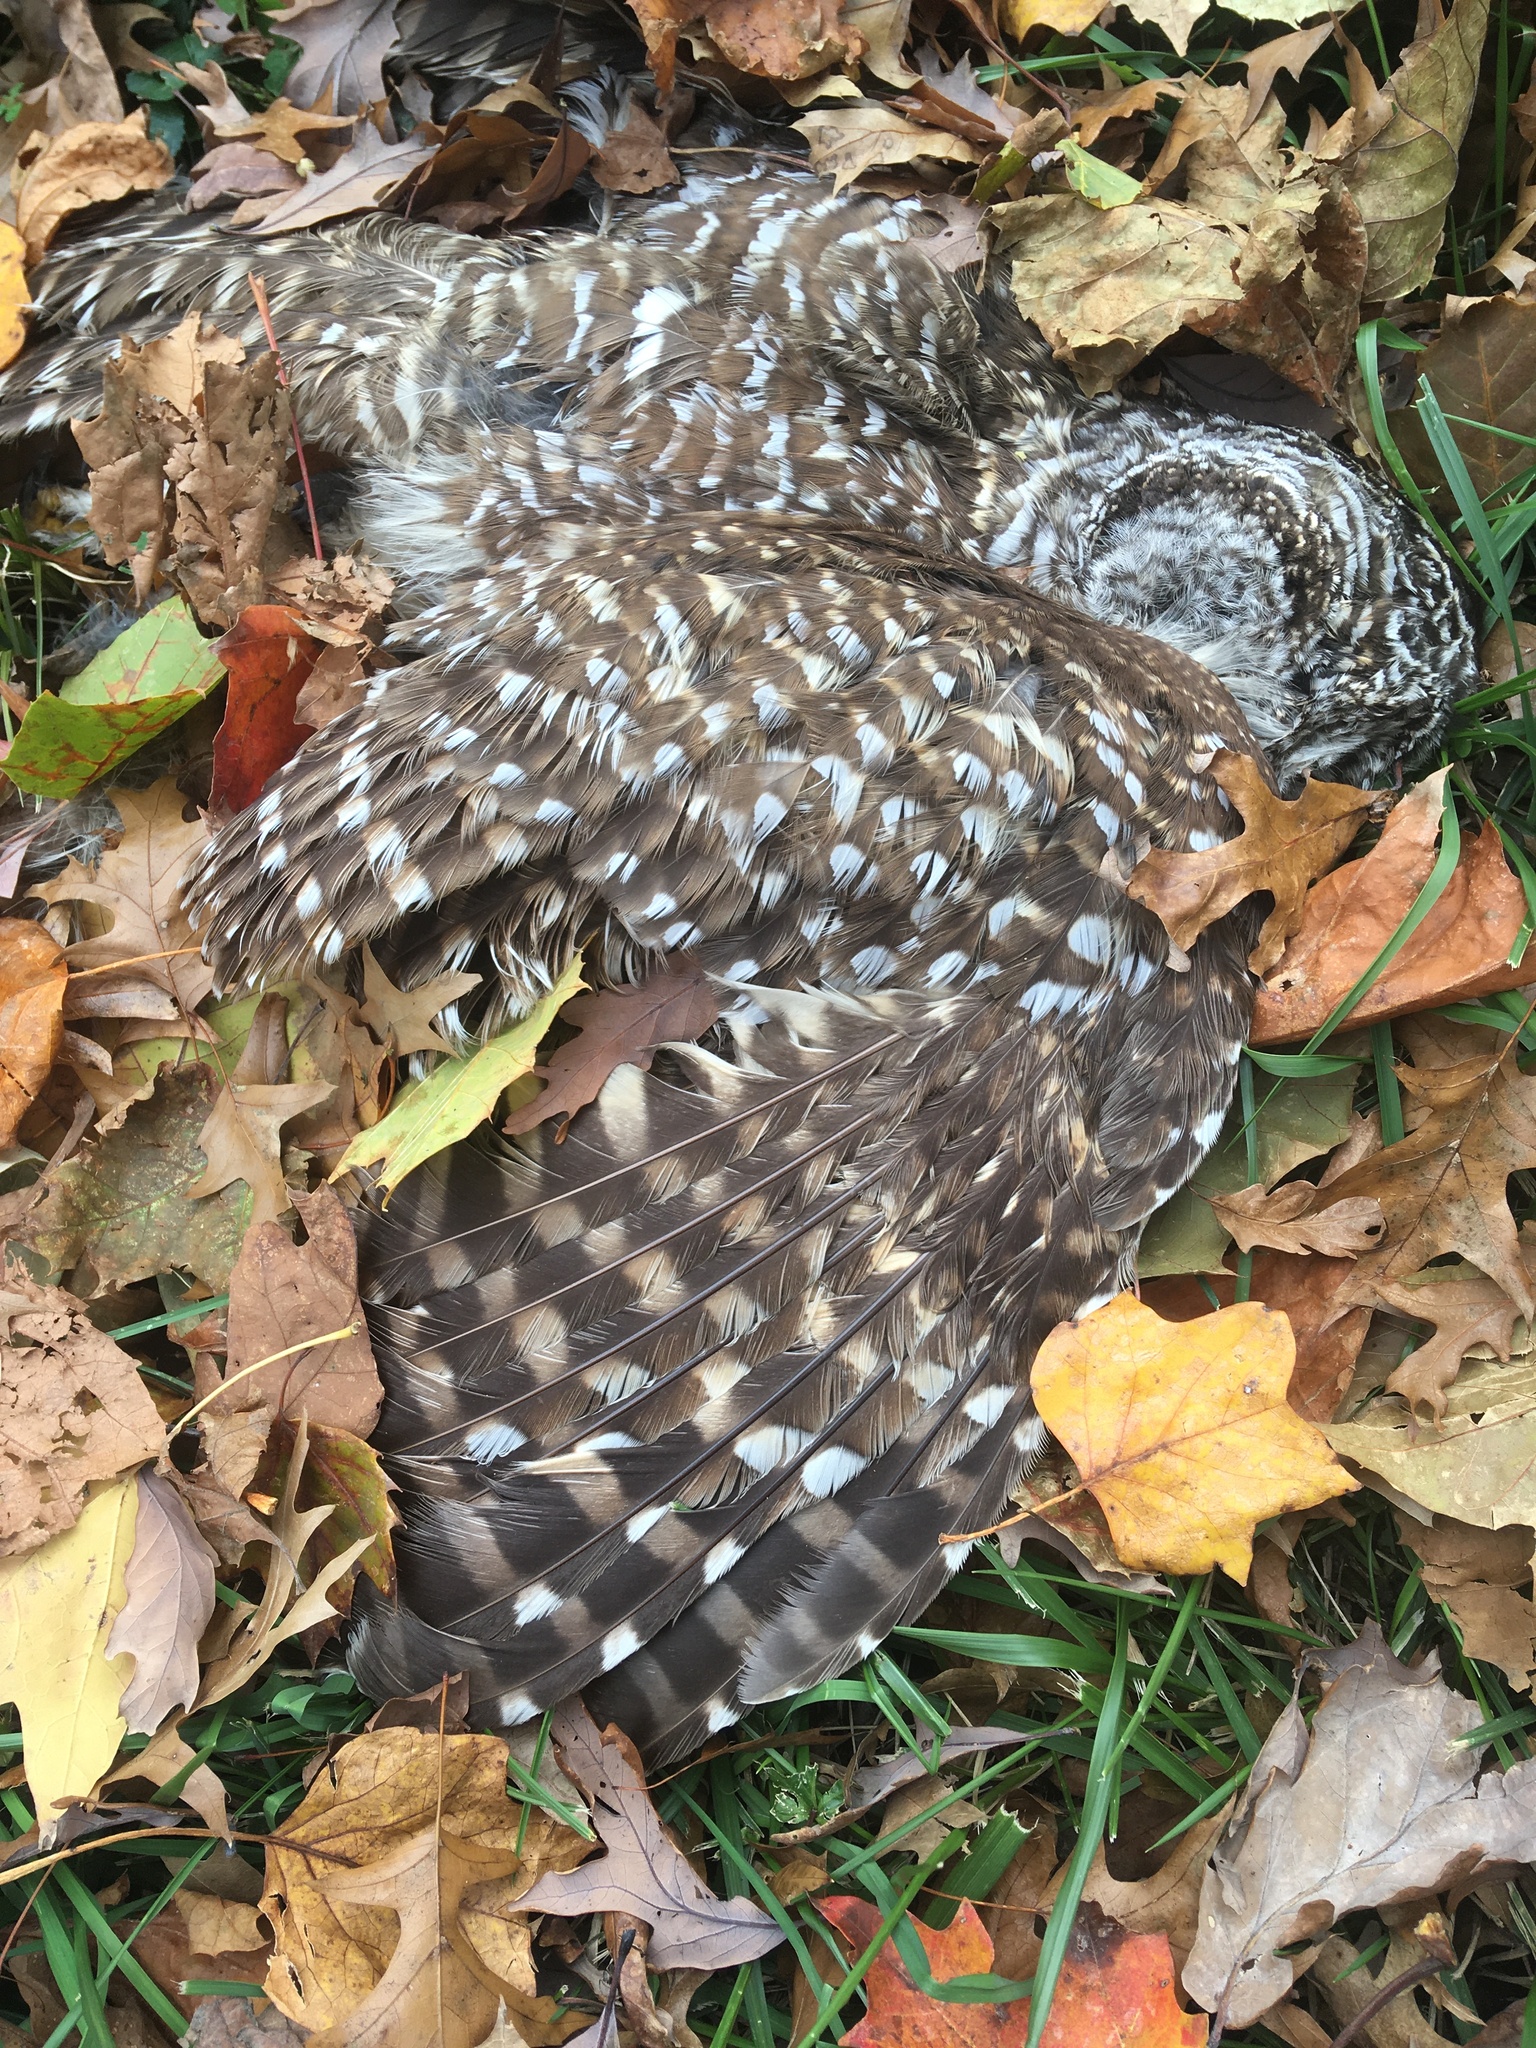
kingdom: Animalia
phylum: Chordata
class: Aves
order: Strigiformes
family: Strigidae
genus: Strix
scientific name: Strix varia
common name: Barred owl
